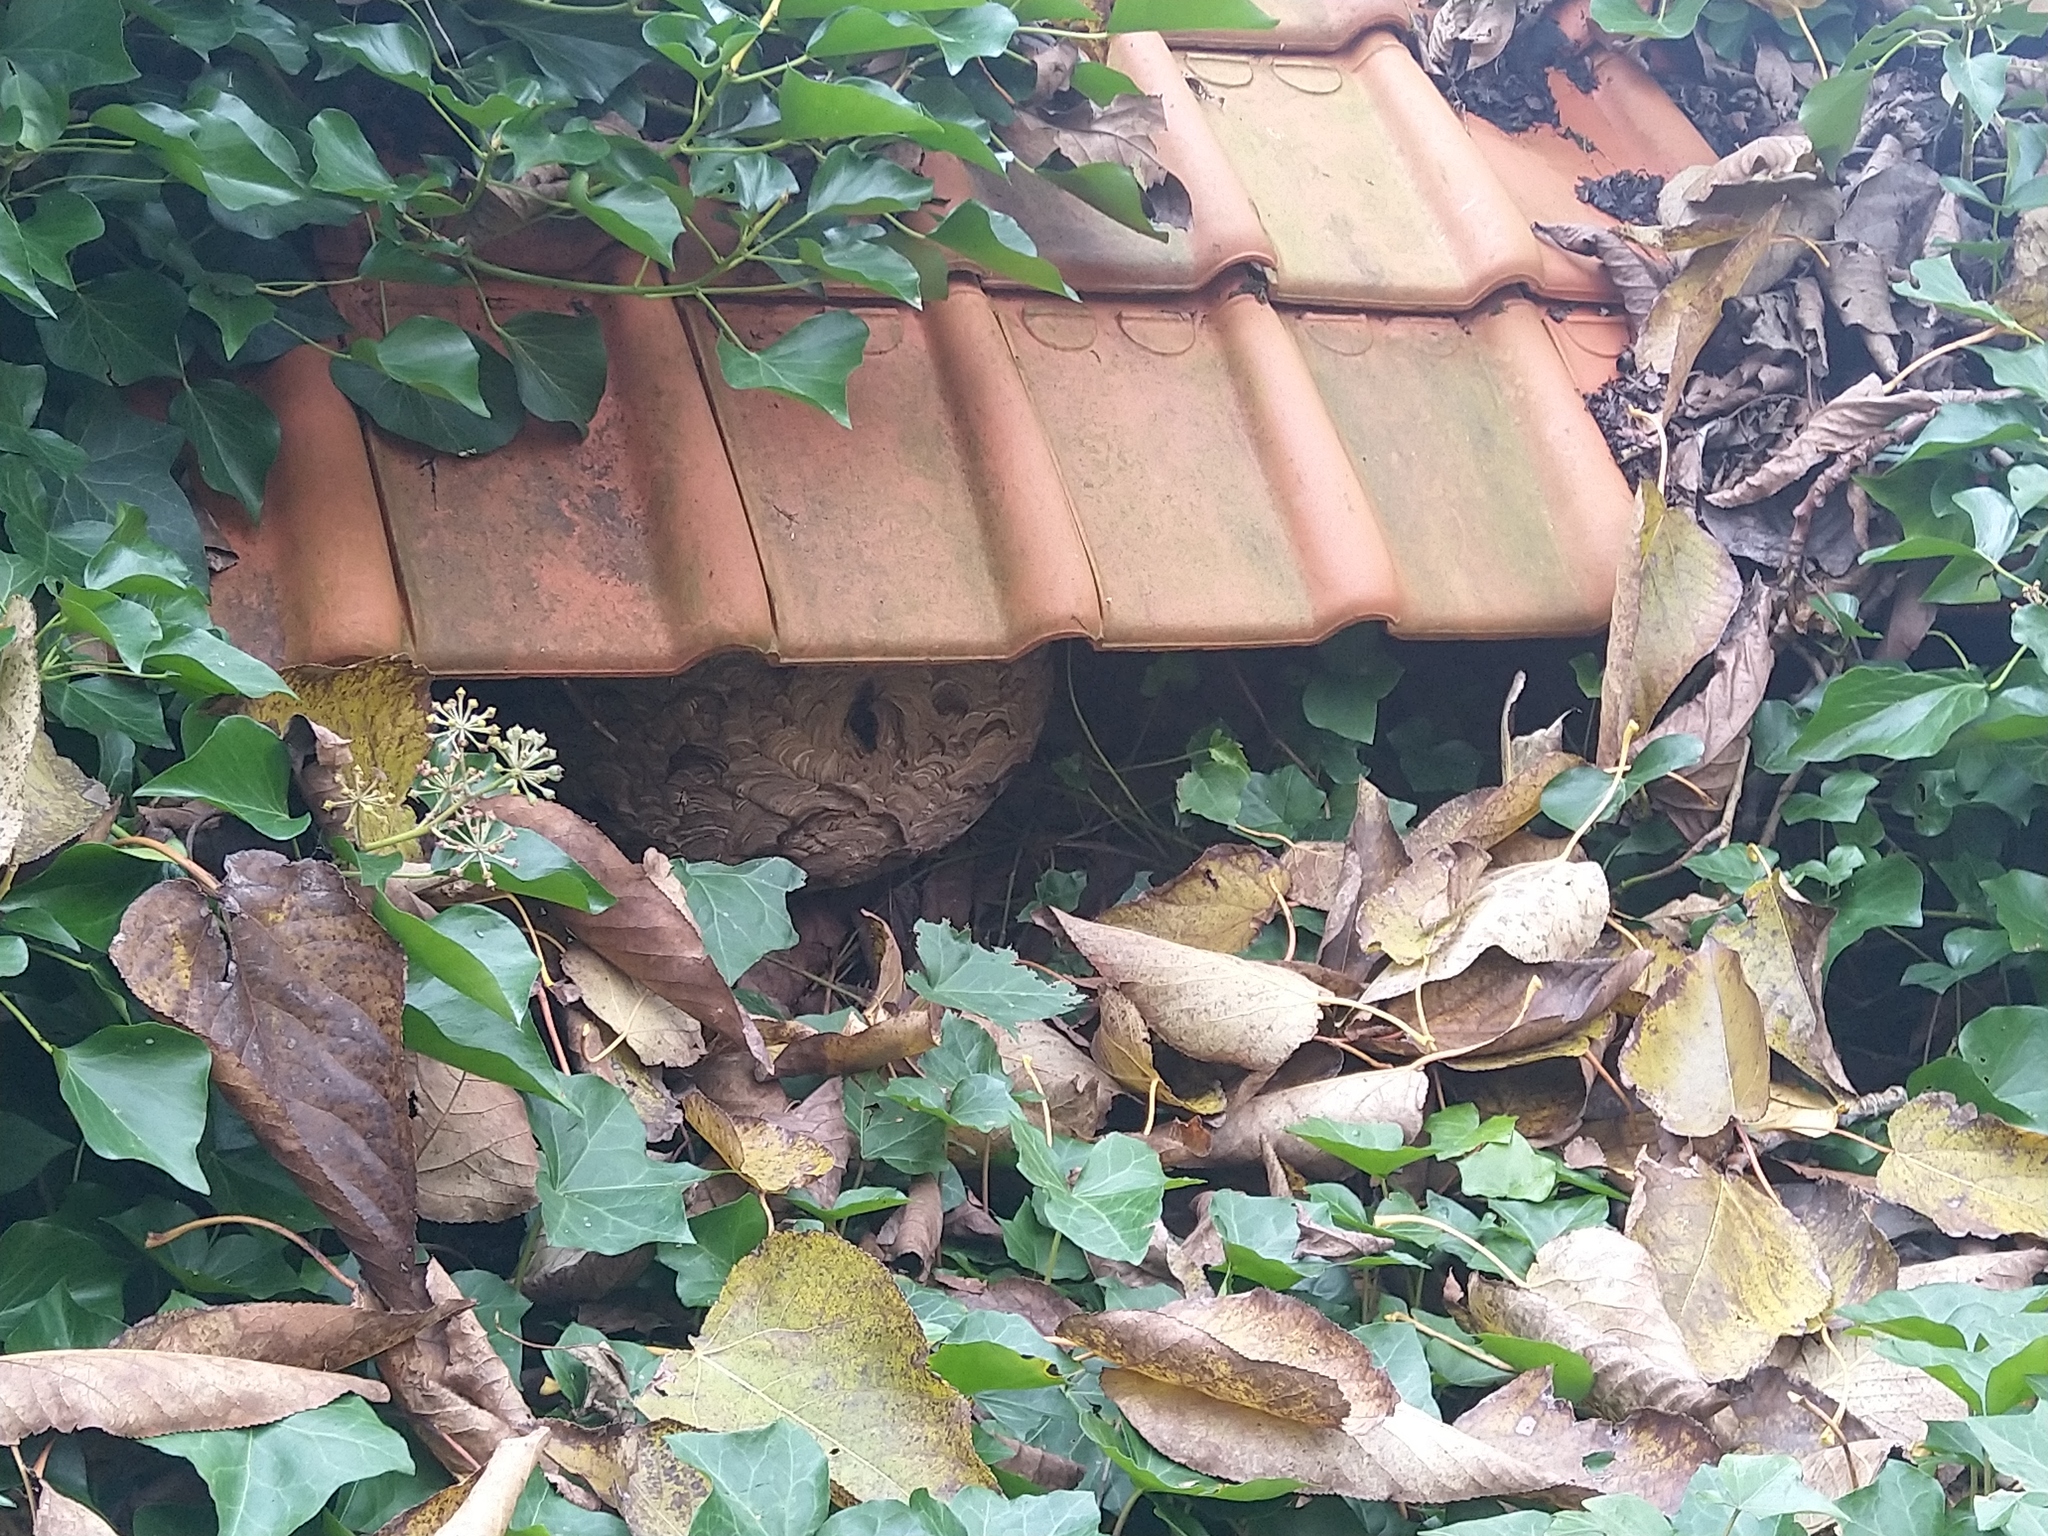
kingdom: Animalia
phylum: Arthropoda
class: Insecta
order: Hymenoptera
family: Vespidae
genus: Vespa
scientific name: Vespa velutina
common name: Asian hornet
